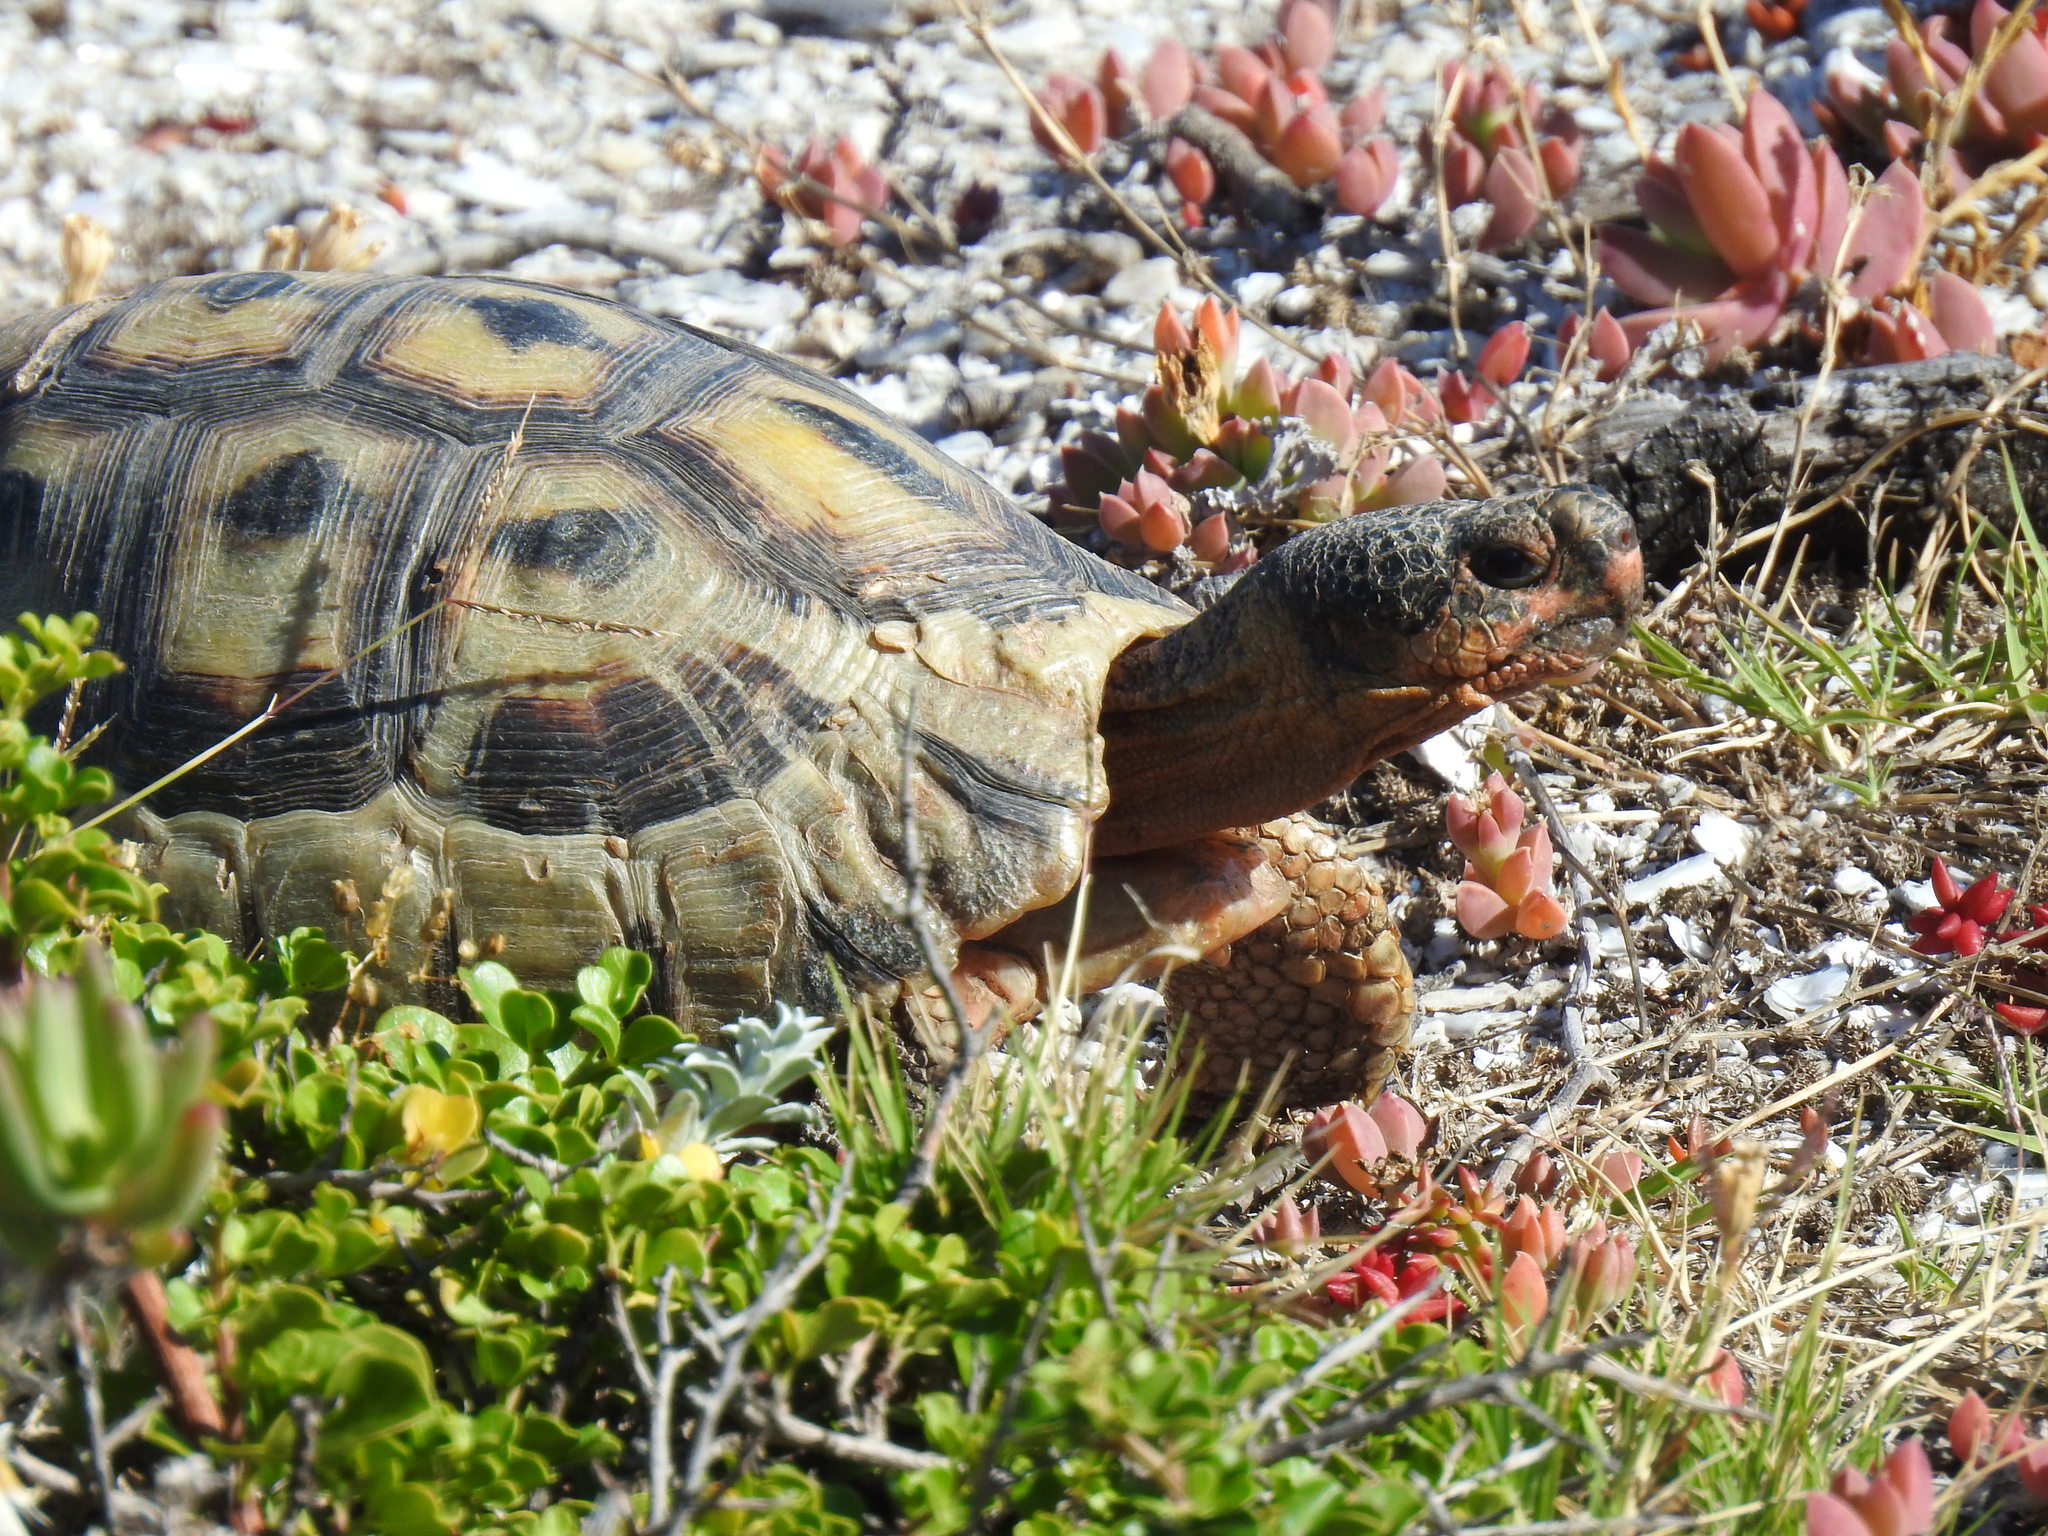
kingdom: Animalia
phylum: Chordata
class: Testudines
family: Testudinidae
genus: Chersina
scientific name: Chersina angulata
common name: South african bowsprit tortoise
